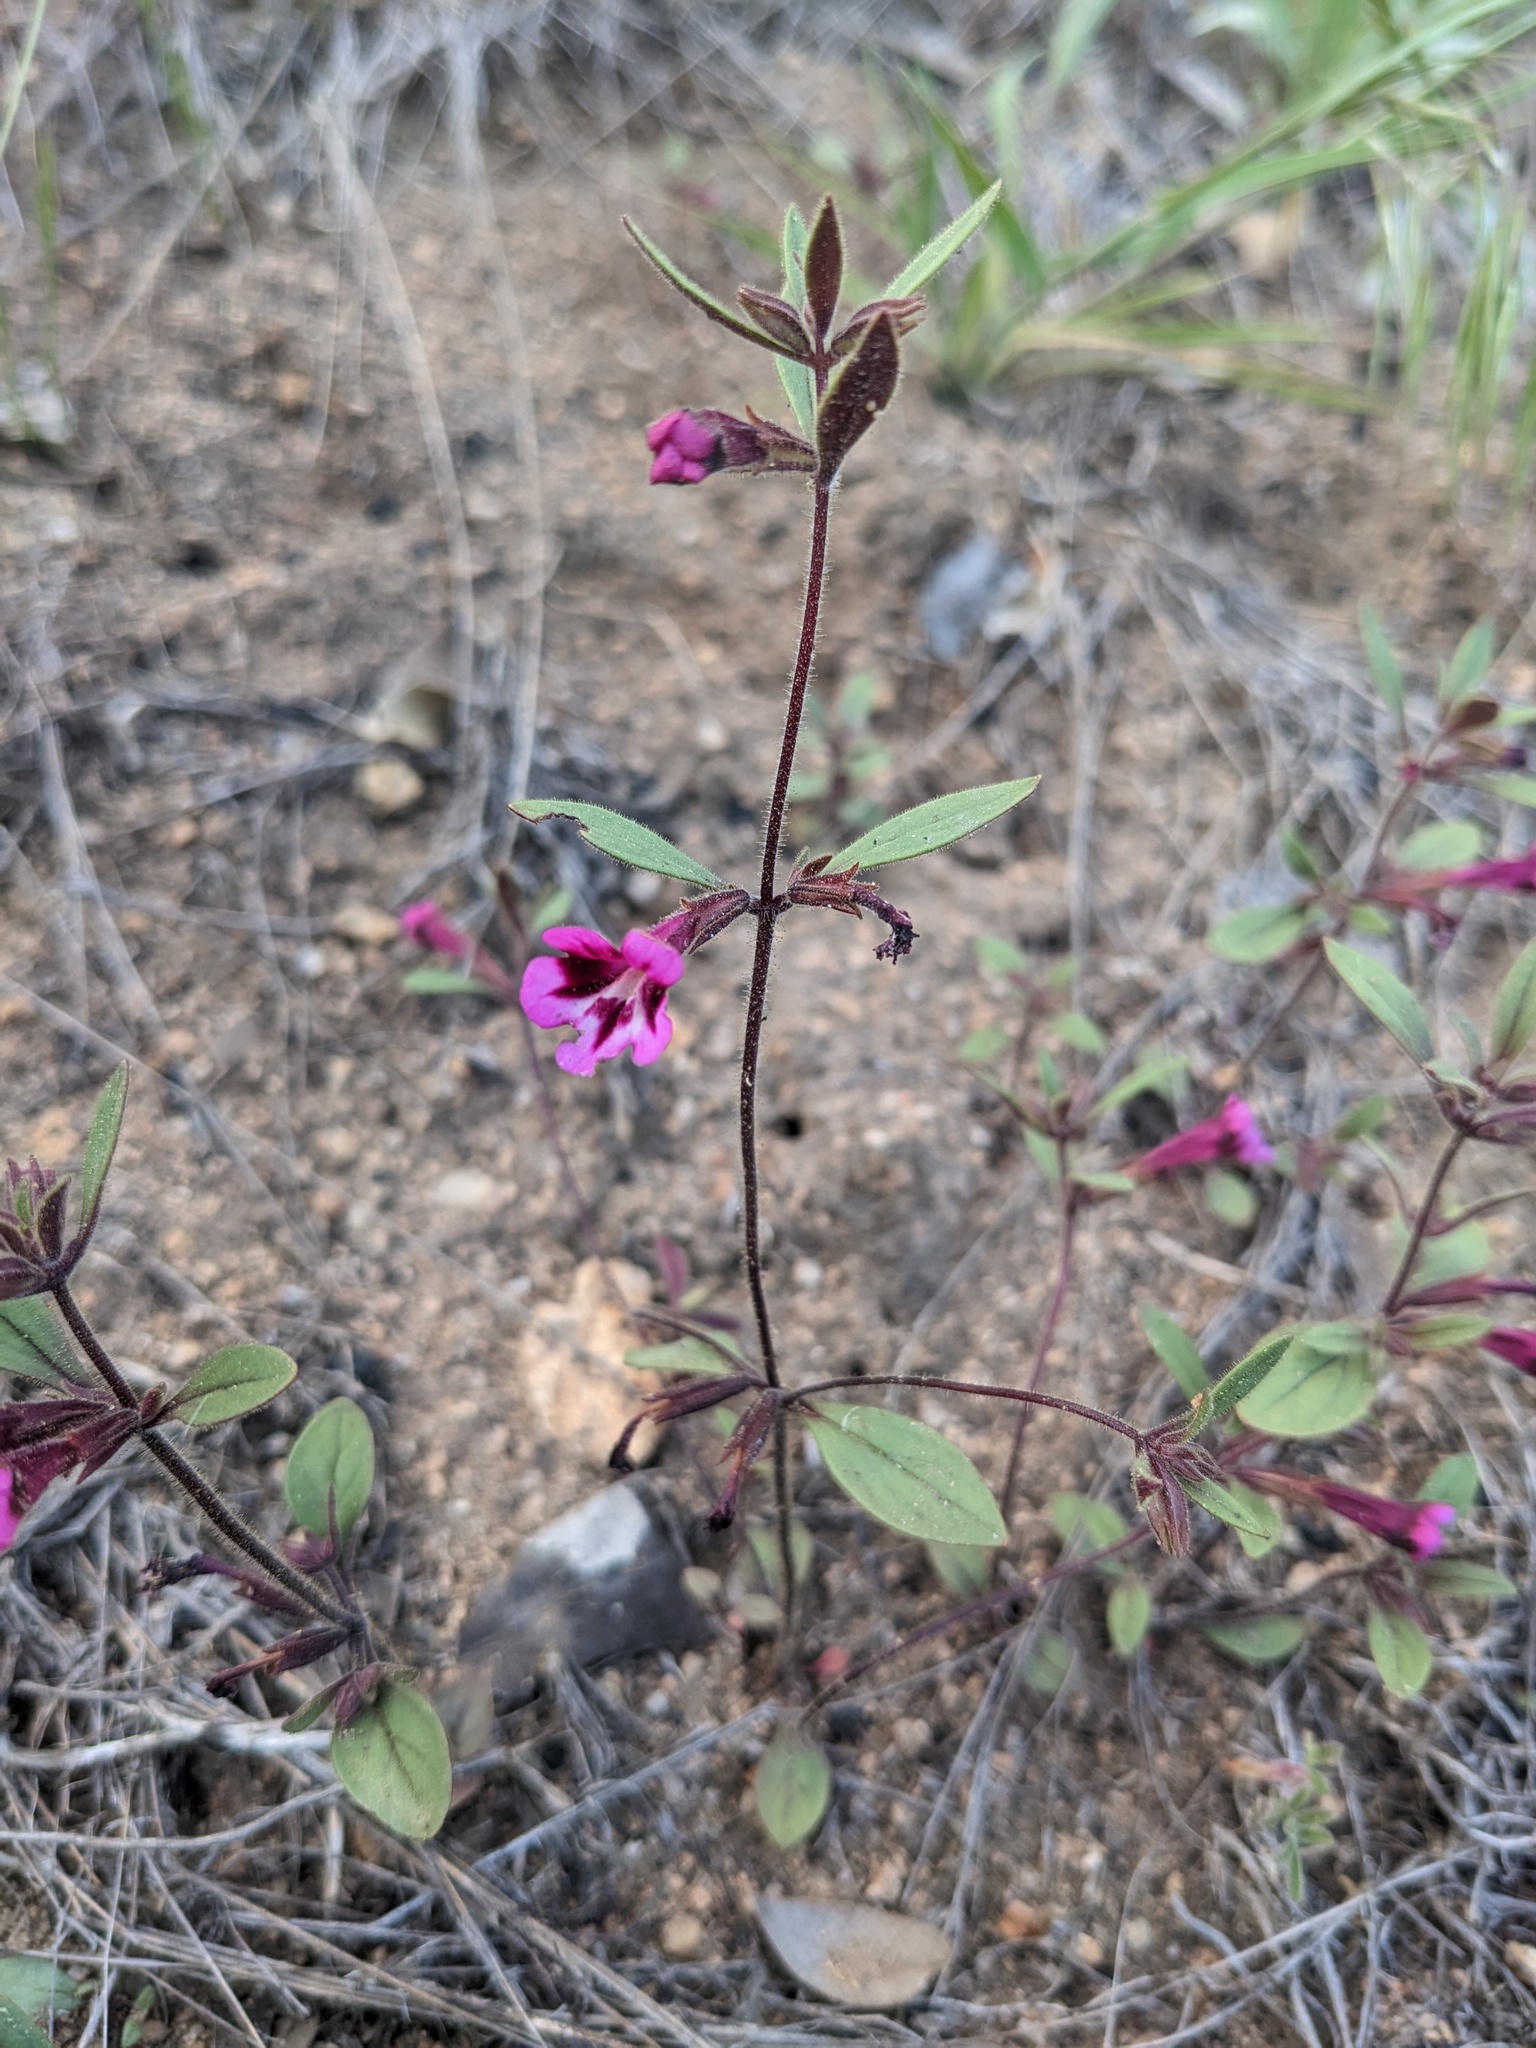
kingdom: Plantae
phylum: Tracheophyta
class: Magnoliopsida
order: Lamiales
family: Phrymaceae
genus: Diplacus
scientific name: Diplacus layneae
